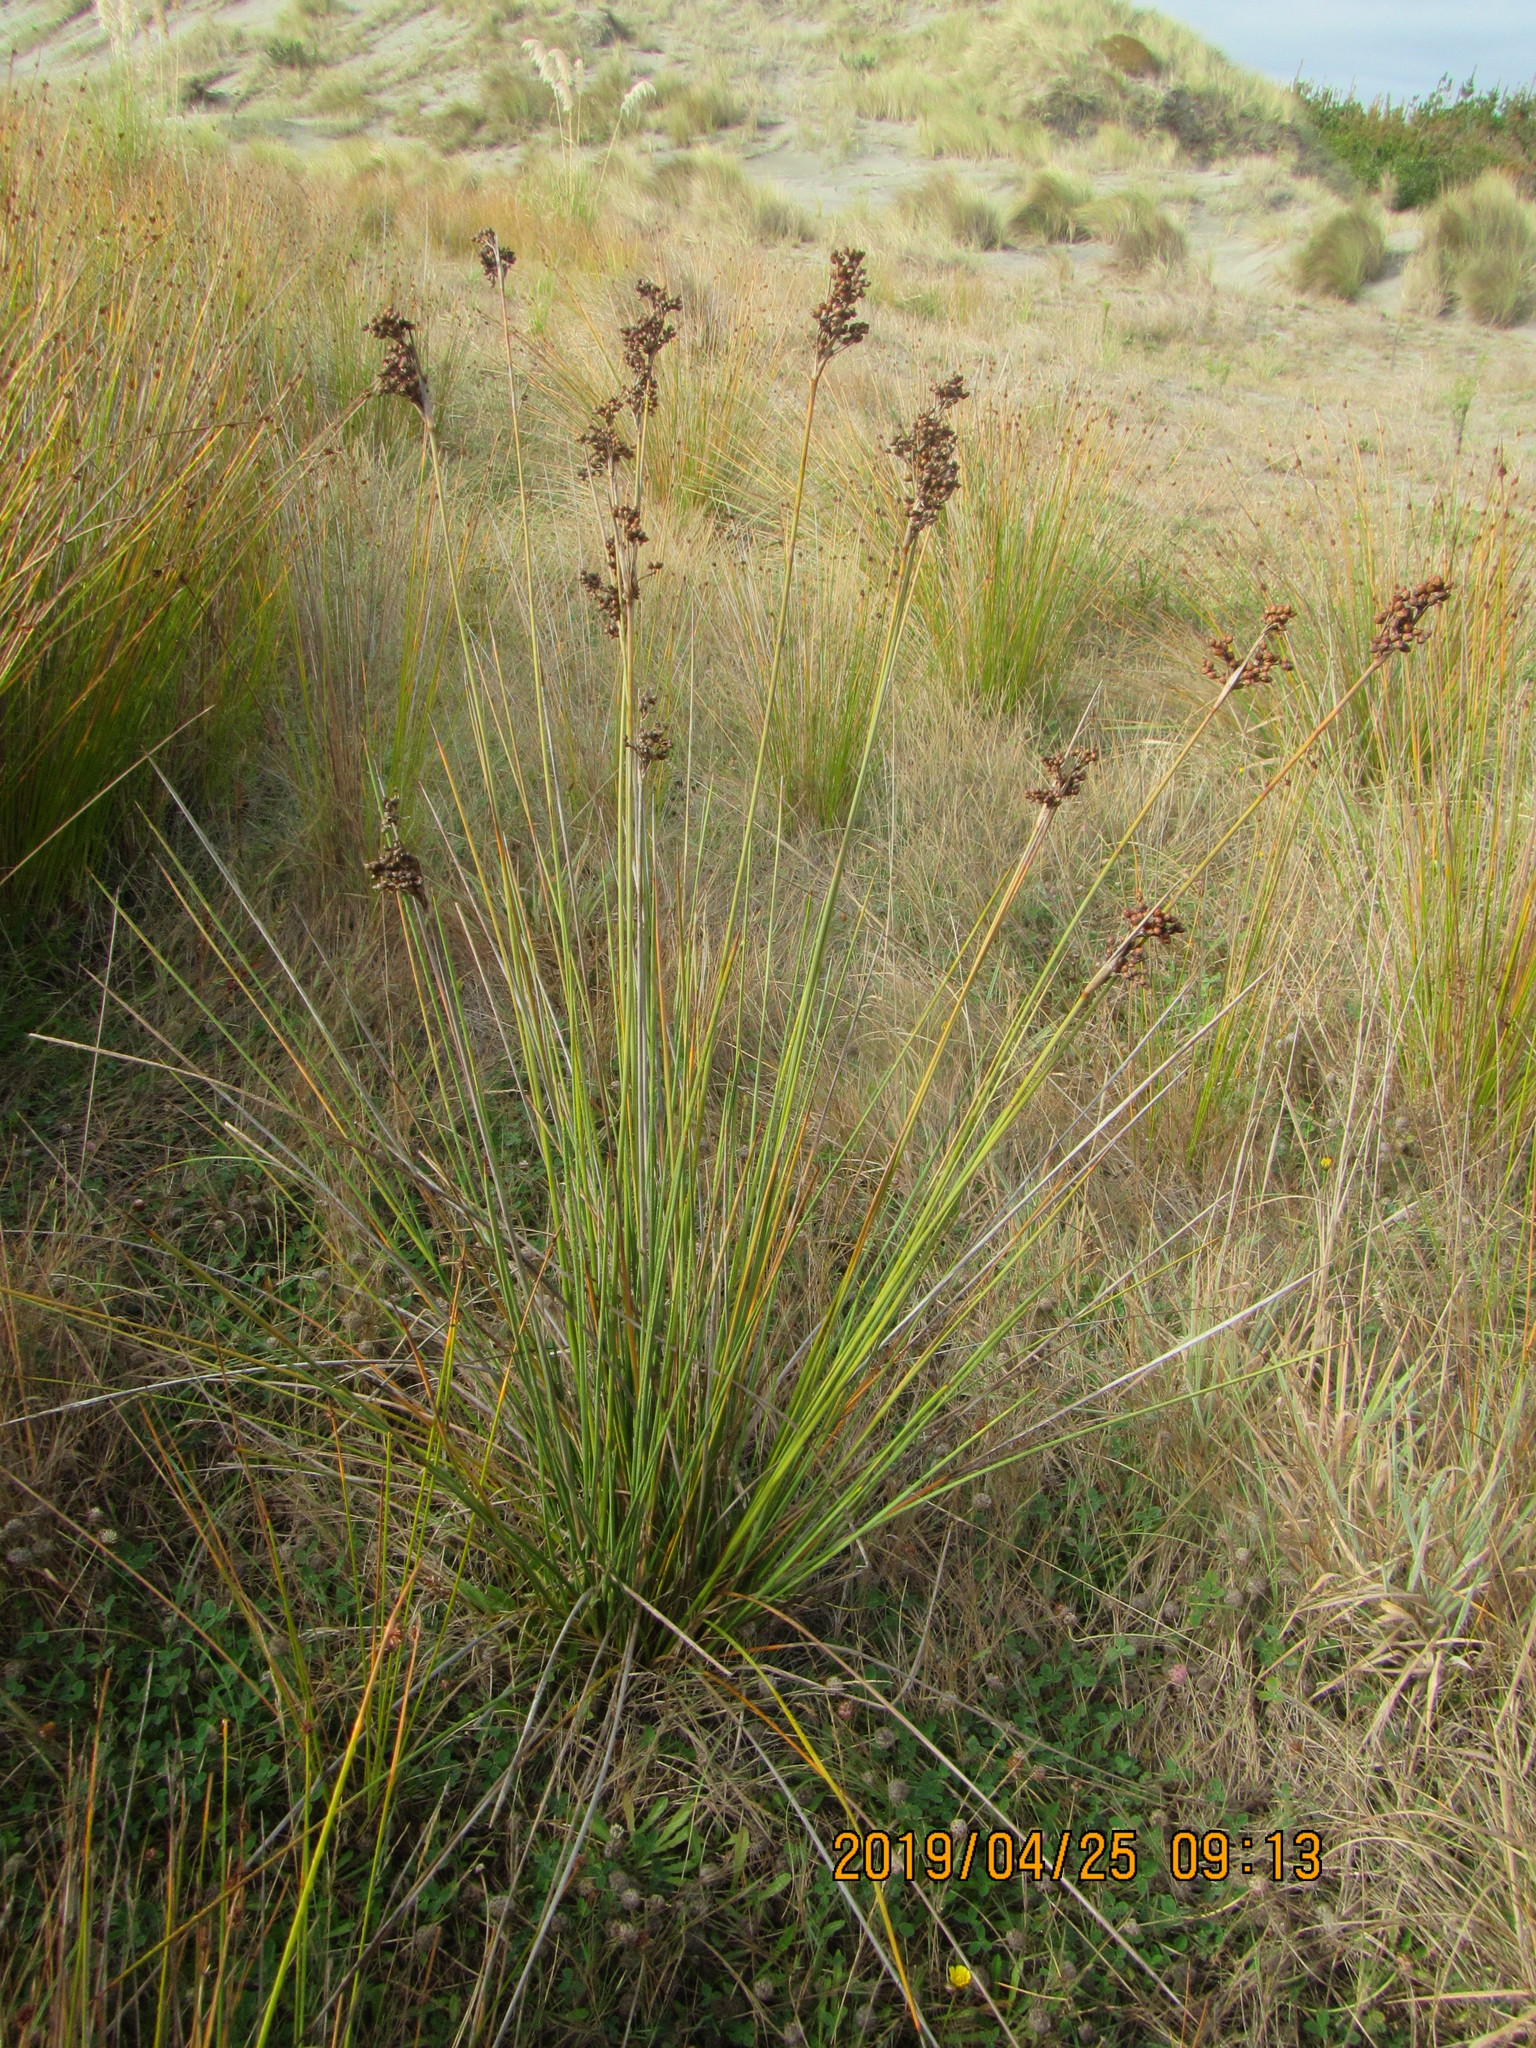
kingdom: Plantae
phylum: Tracheophyta
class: Liliopsida
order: Poales
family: Juncaceae
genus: Juncus
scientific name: Juncus acutus
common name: Sharp rush
